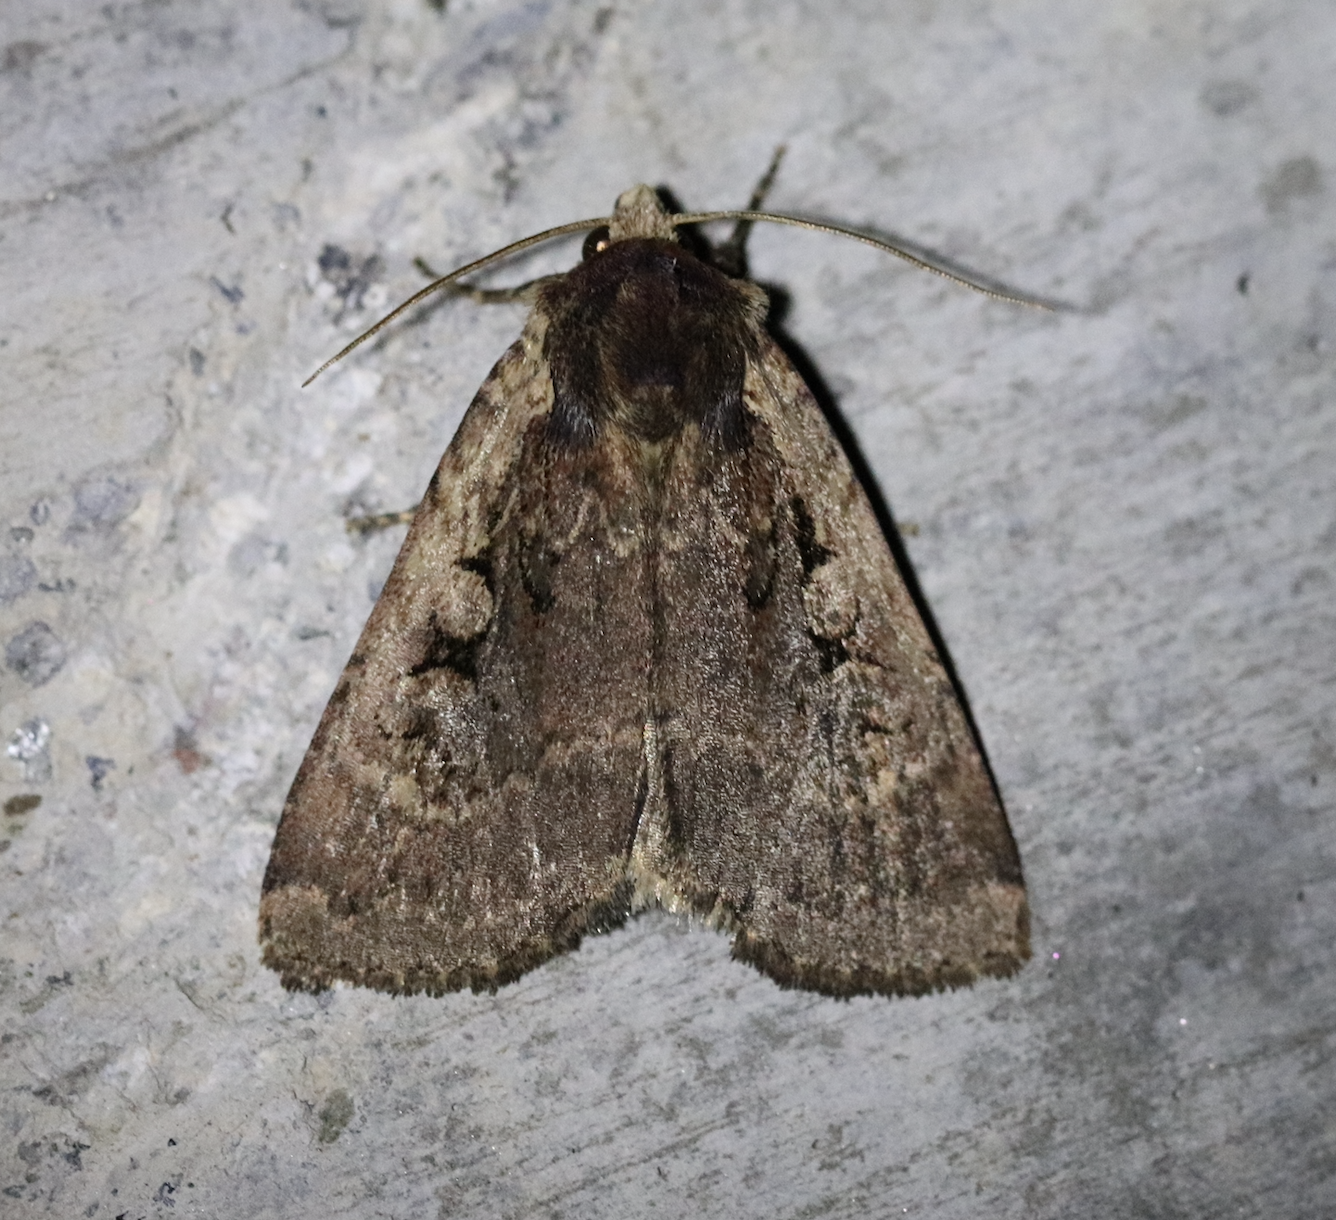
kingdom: Animalia
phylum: Arthropoda
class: Insecta
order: Lepidoptera
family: Noctuidae
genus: Eugraphe
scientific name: Eugraphe sigma
